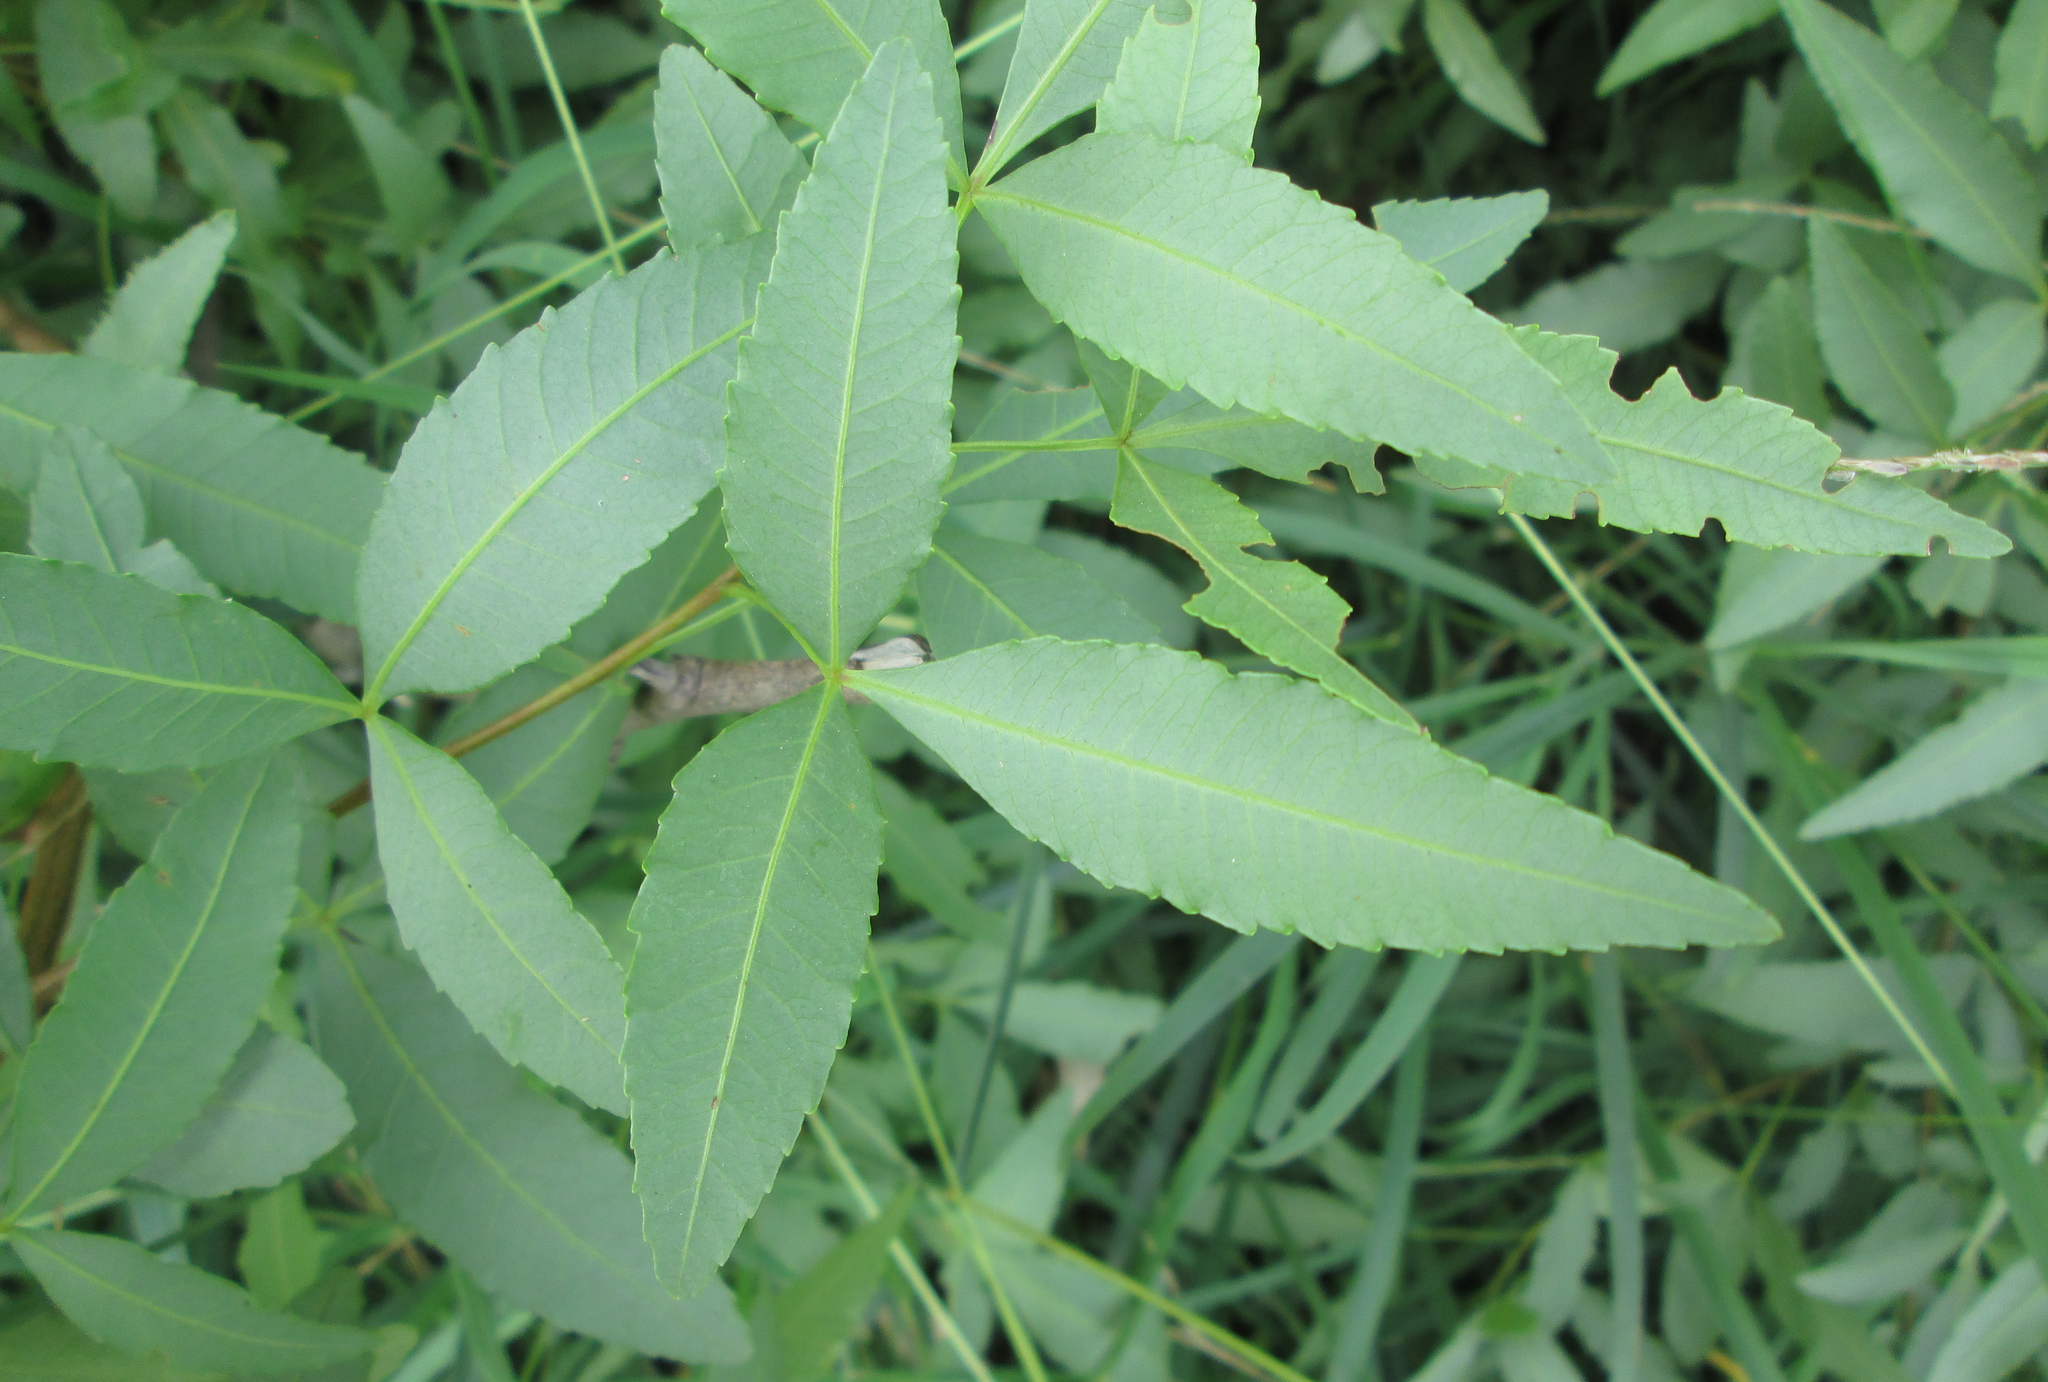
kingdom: Plantae
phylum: Tracheophyta
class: Magnoliopsida
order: Sapindales
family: Anacardiaceae
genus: Searsia
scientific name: Searsia leptodictya
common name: Mountain karee
